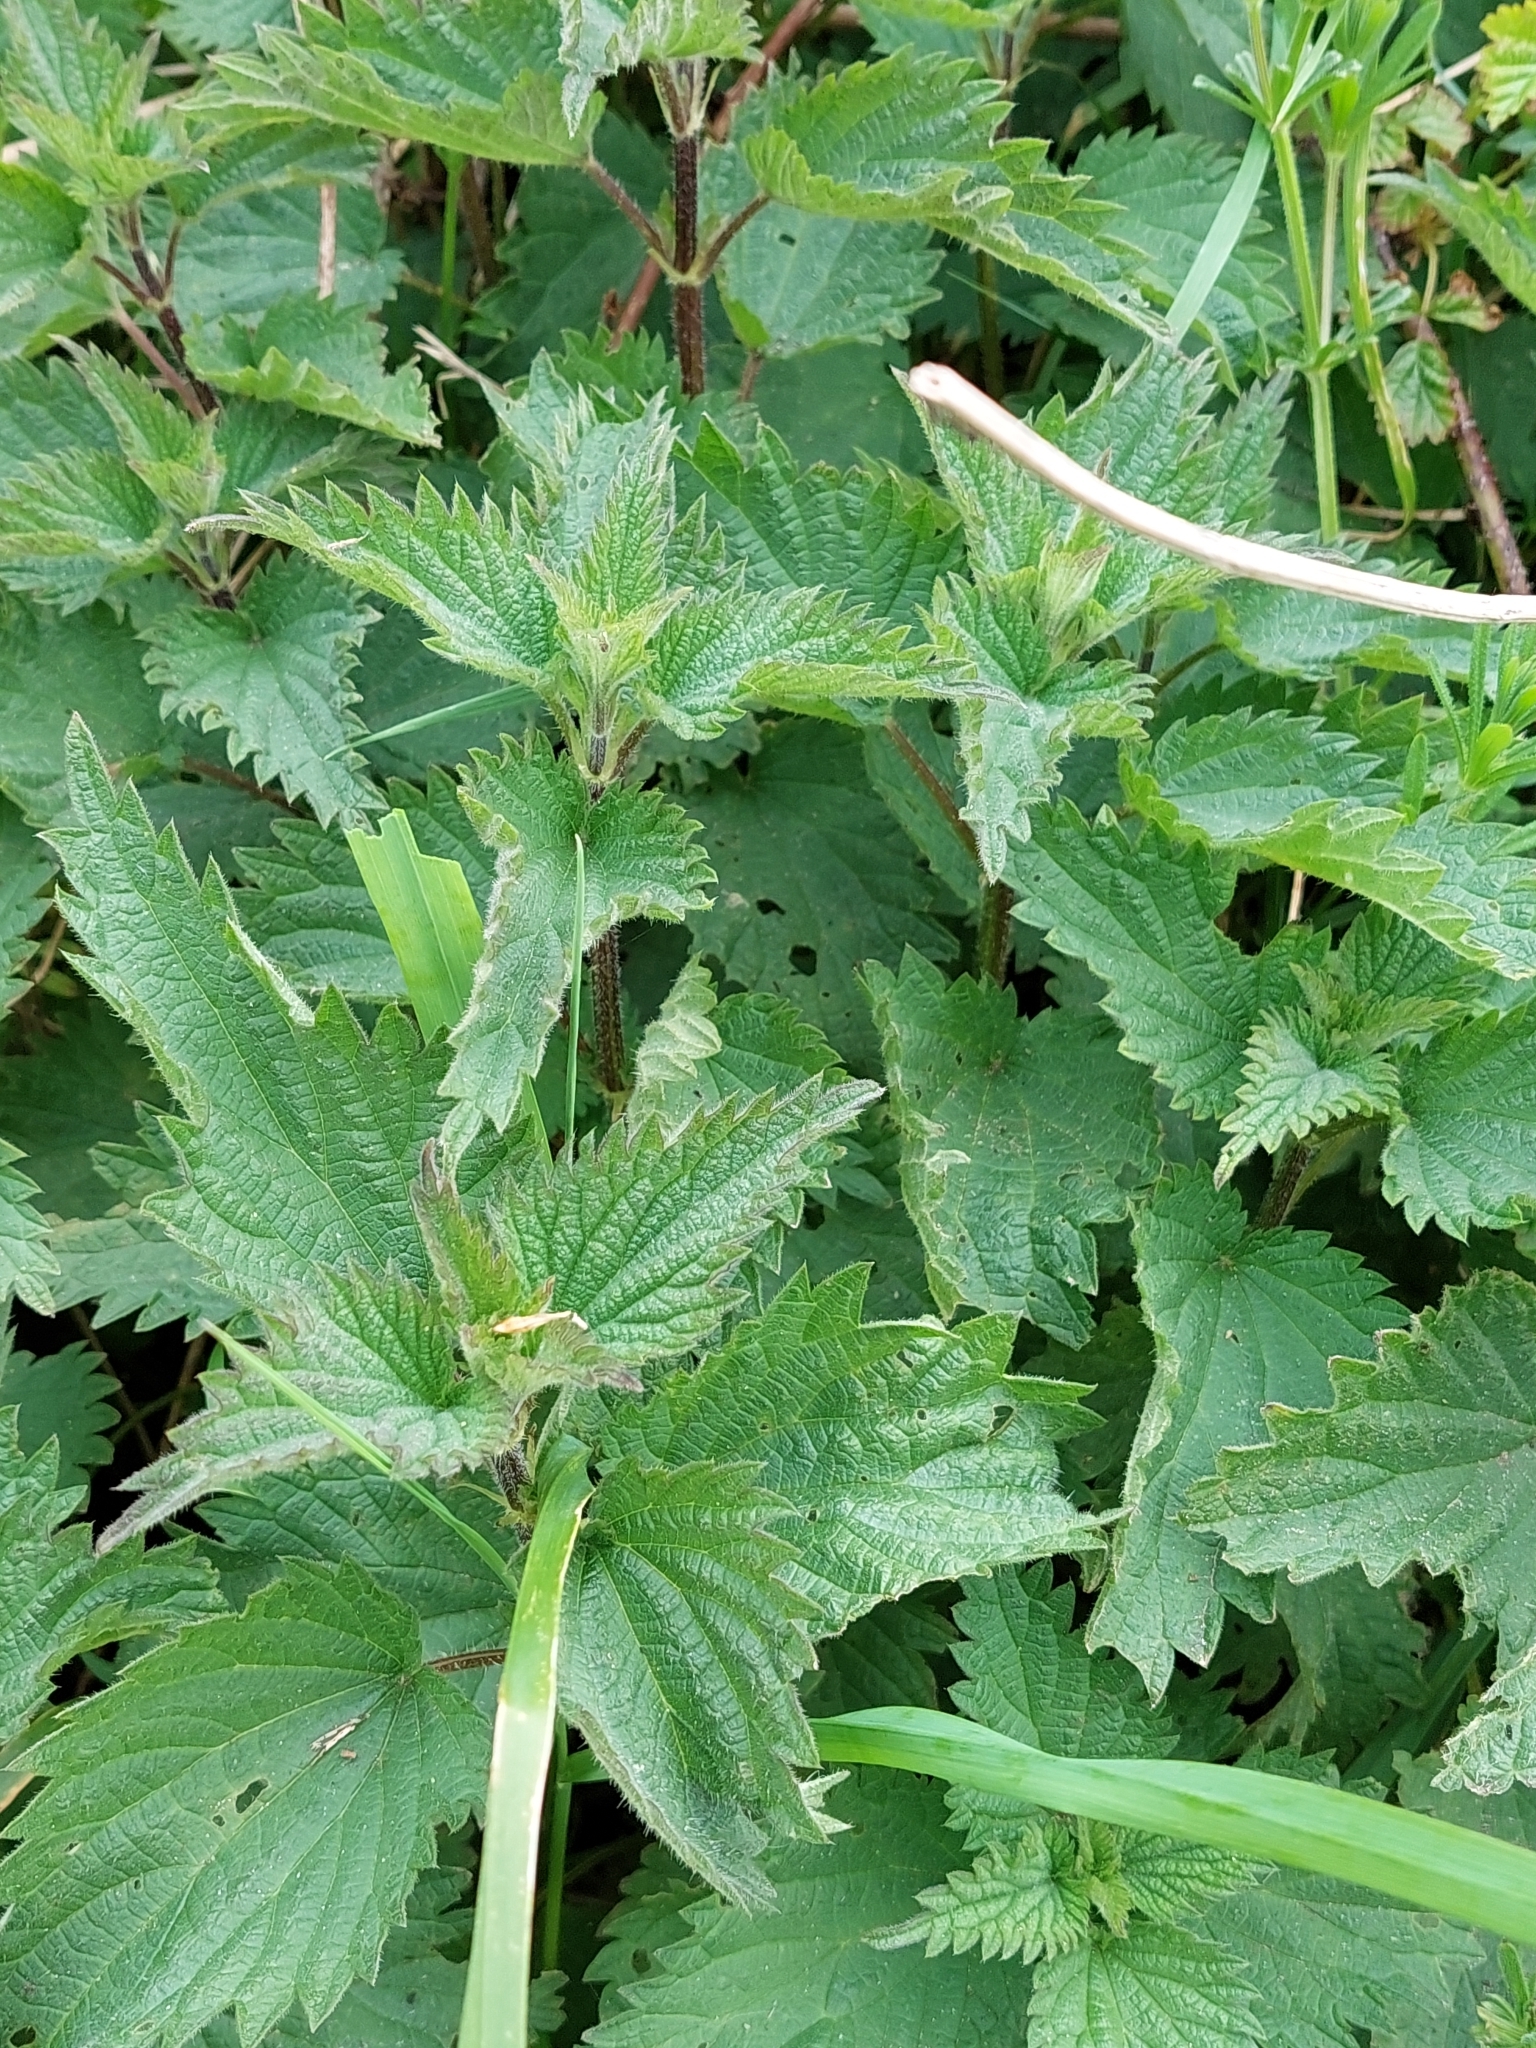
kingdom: Plantae
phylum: Tracheophyta
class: Magnoliopsida
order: Rosales
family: Urticaceae
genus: Urtica
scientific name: Urtica dioica
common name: Common nettle
